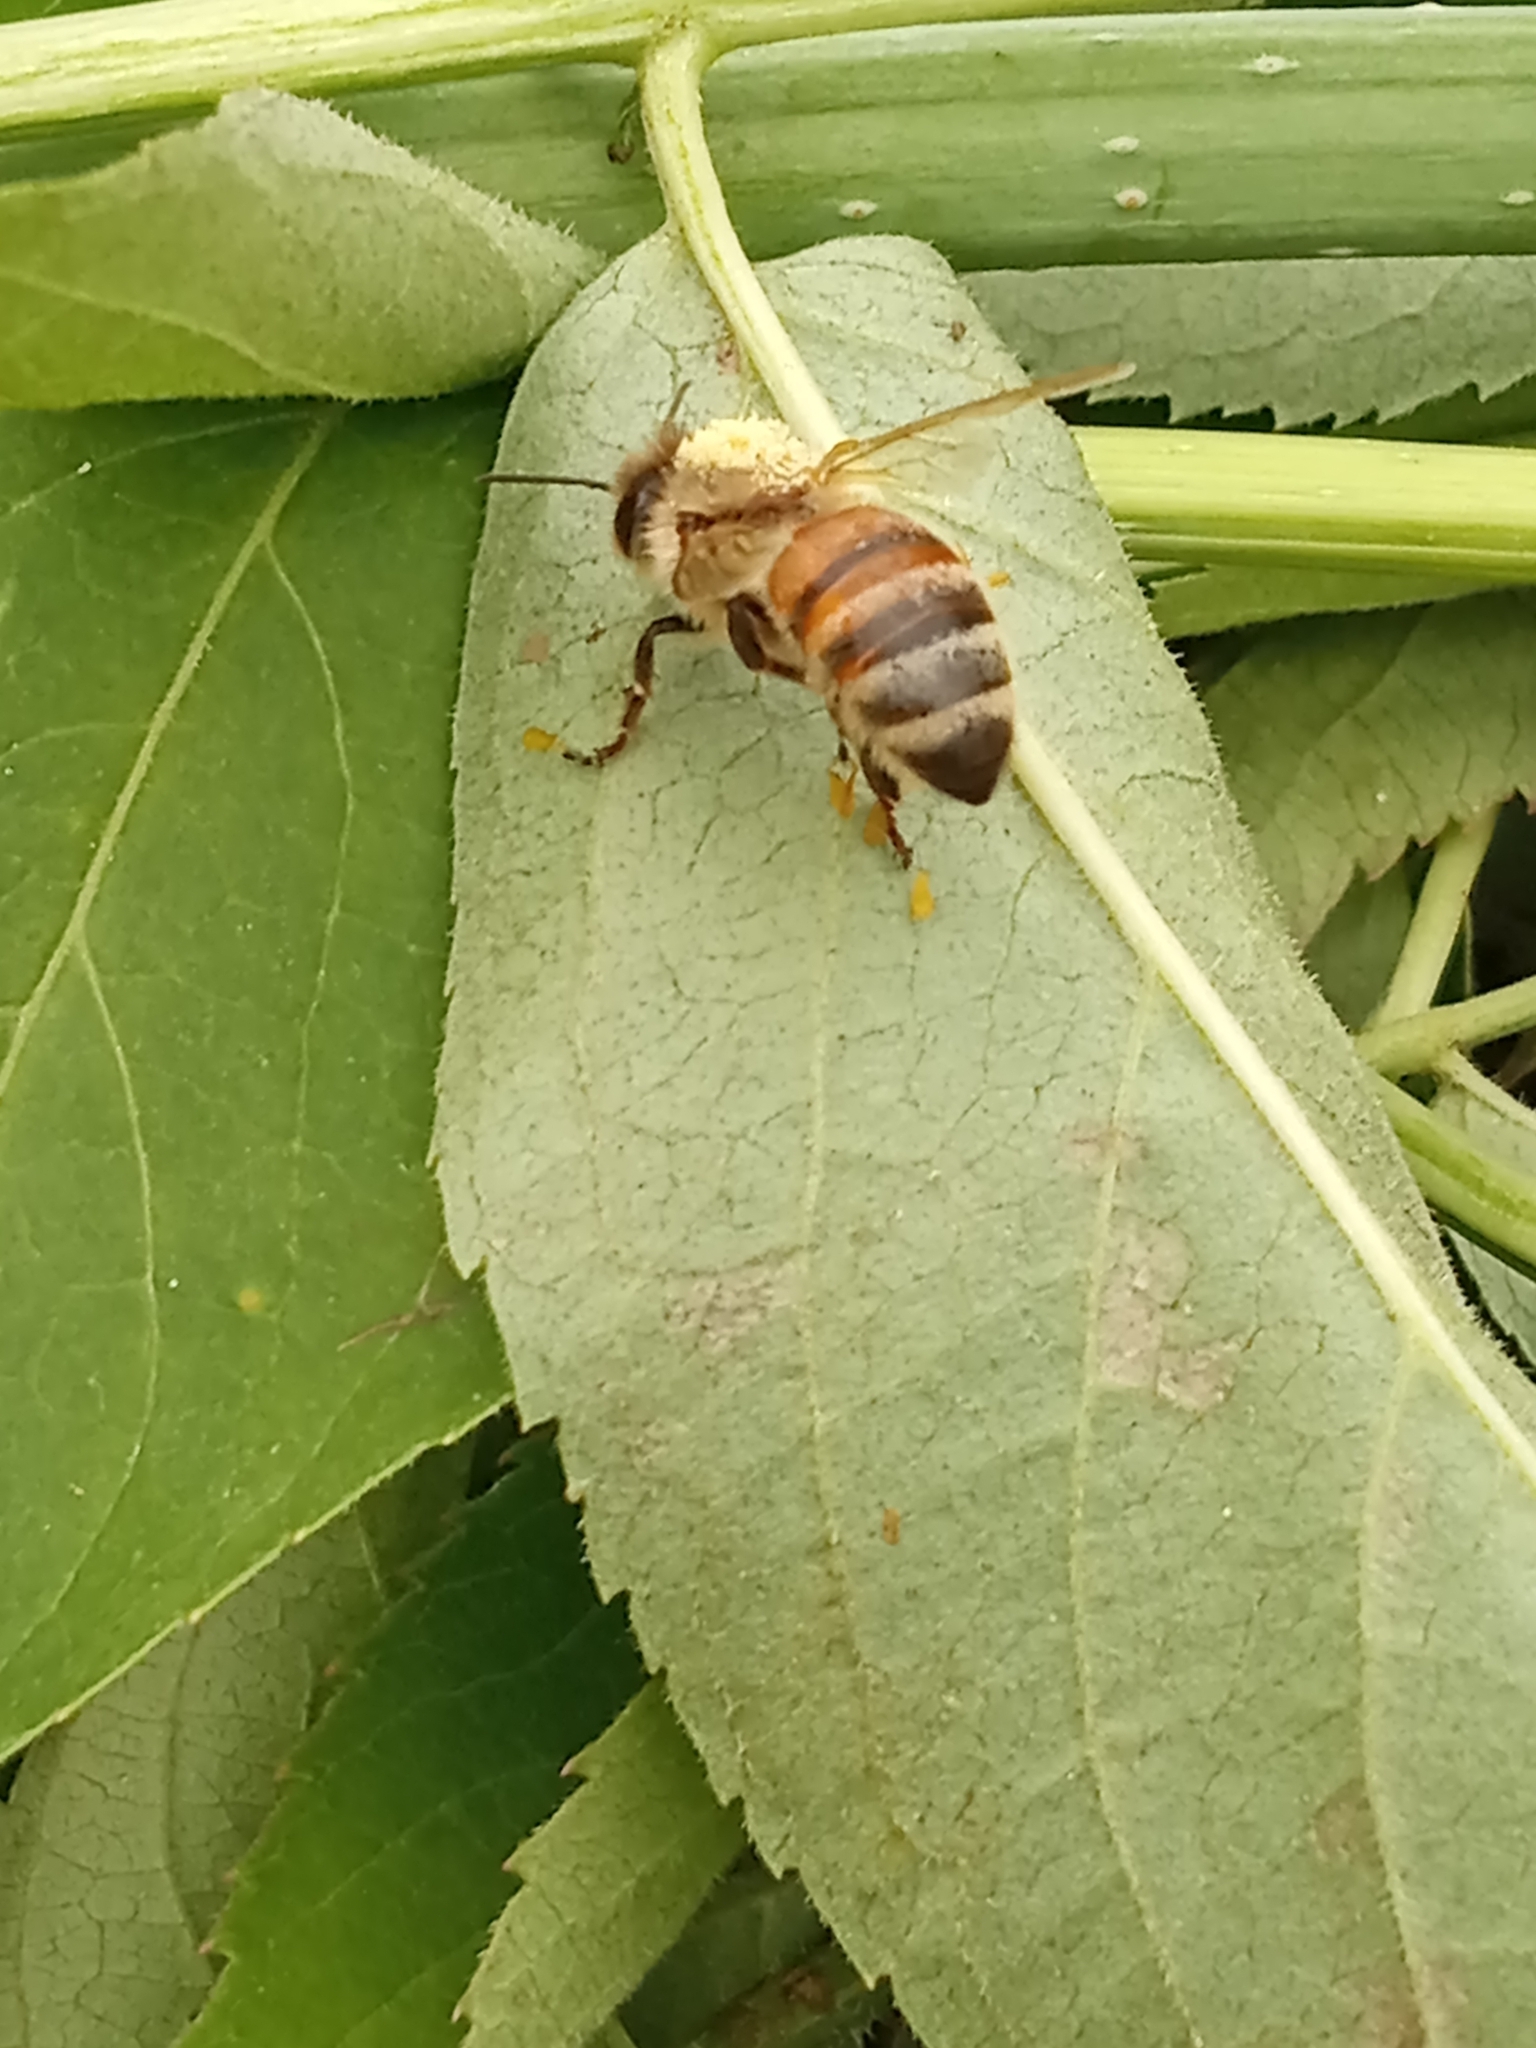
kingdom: Animalia
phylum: Arthropoda
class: Insecta
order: Hymenoptera
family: Apidae
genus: Apis
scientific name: Apis mellifera
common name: Honey bee
